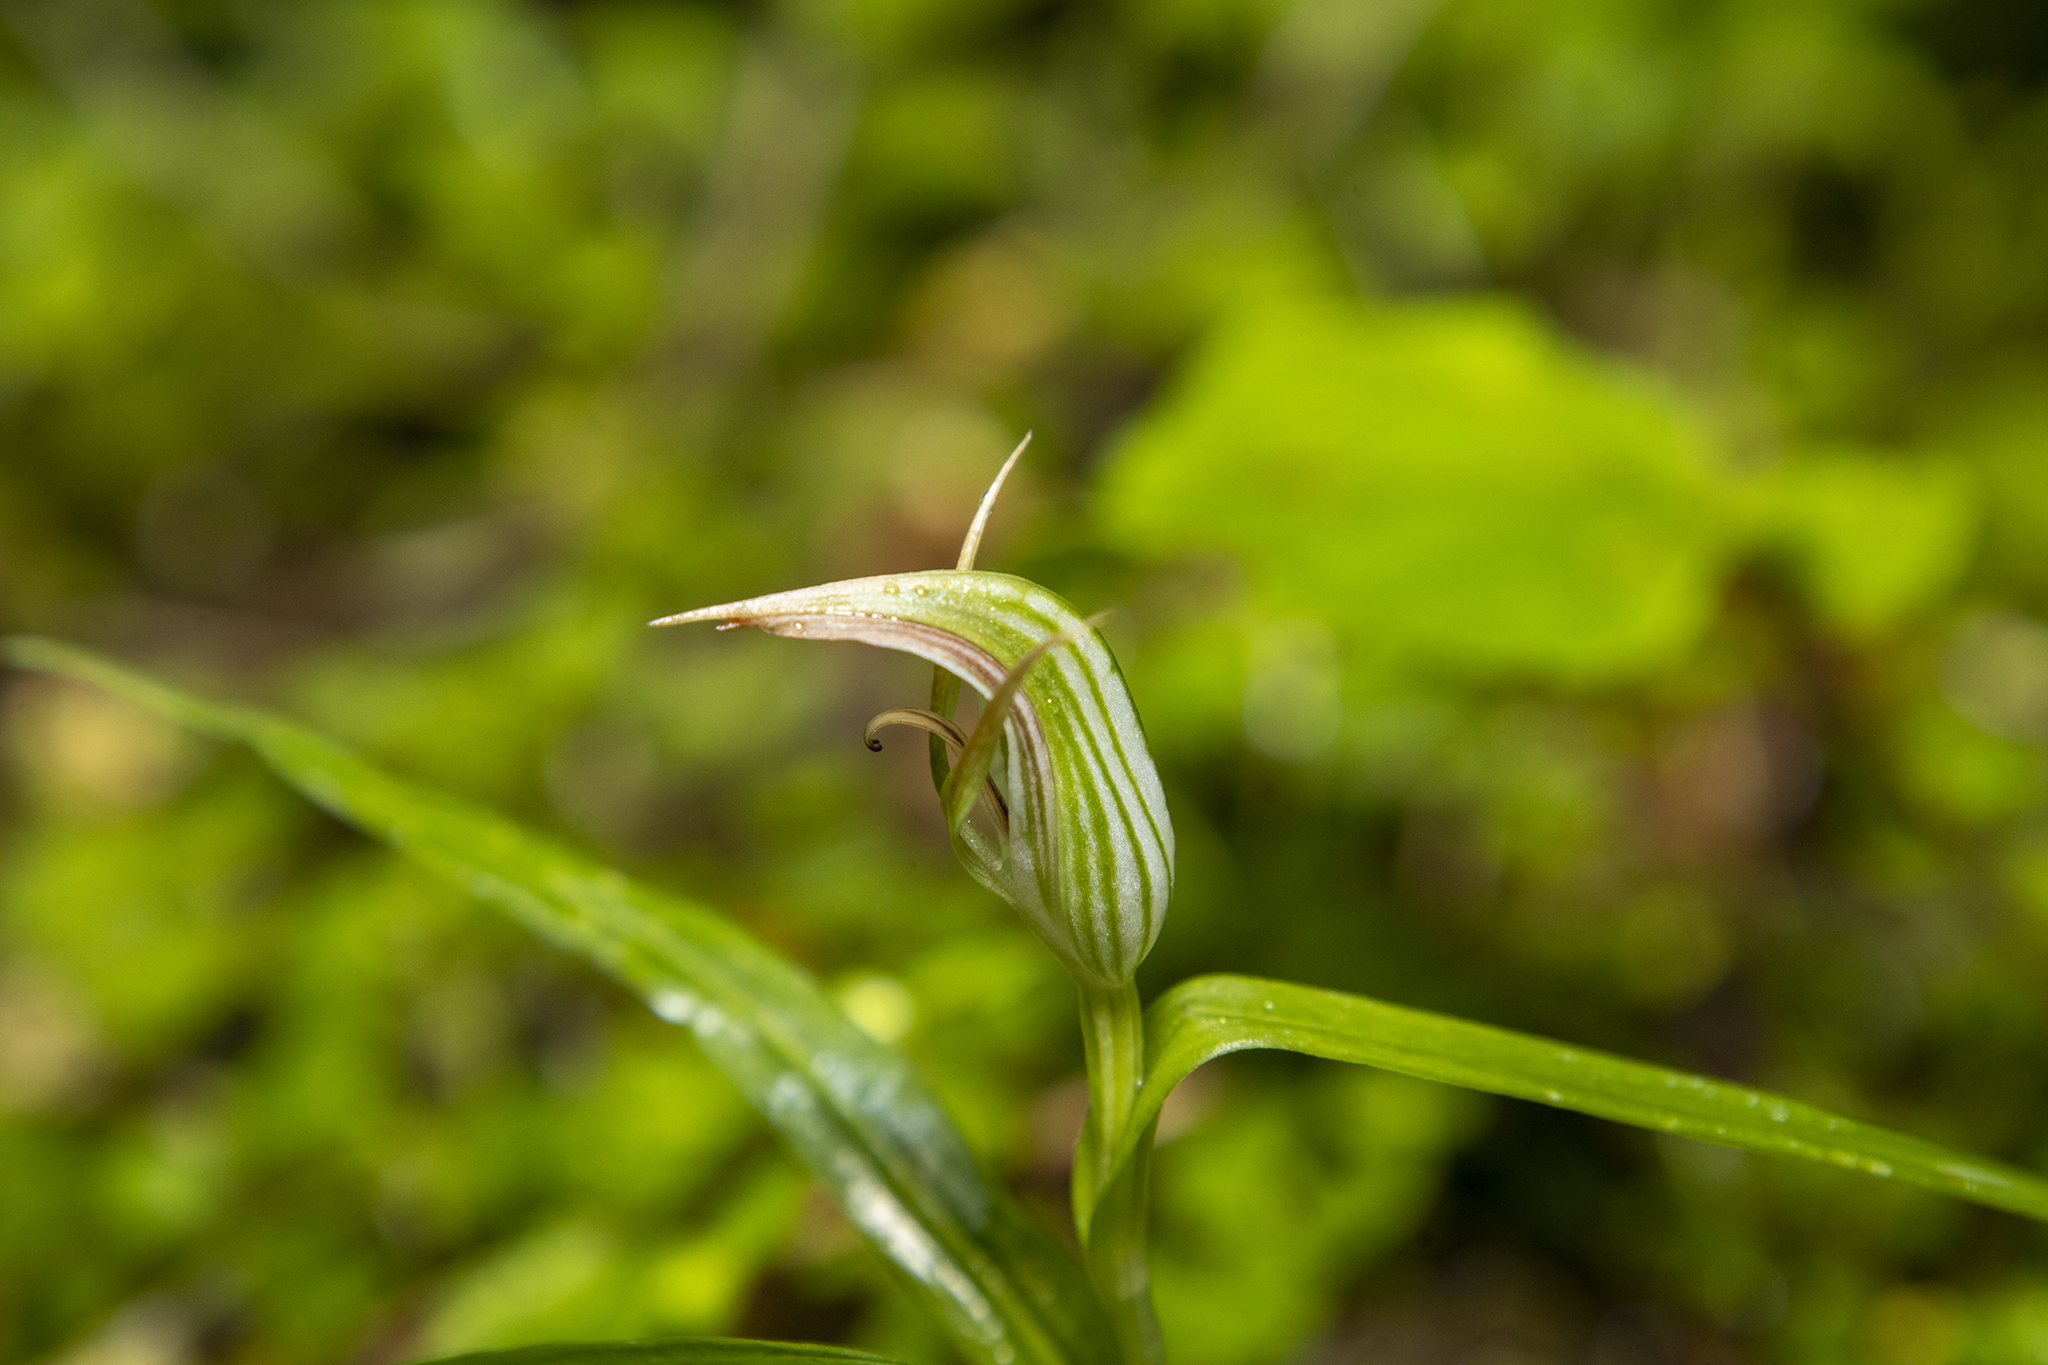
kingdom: Plantae
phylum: Tracheophyta
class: Liliopsida
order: Asparagales
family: Orchidaceae
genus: Pterostylis
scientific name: Pterostylis irsoniana
